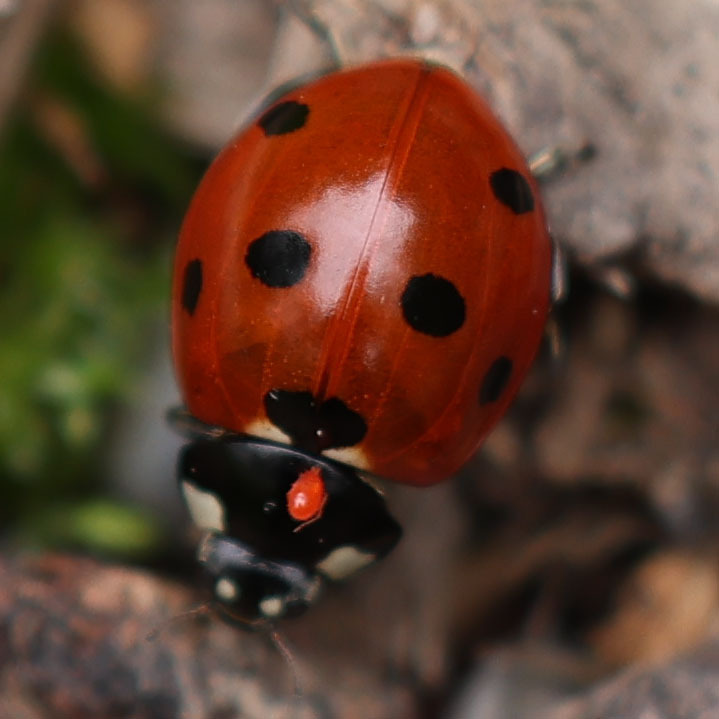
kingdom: Animalia
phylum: Arthropoda
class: Insecta
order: Coleoptera
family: Coccinellidae
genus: Coccinella
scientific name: Coccinella septempunctata
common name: Sevenspotted lady beetle
